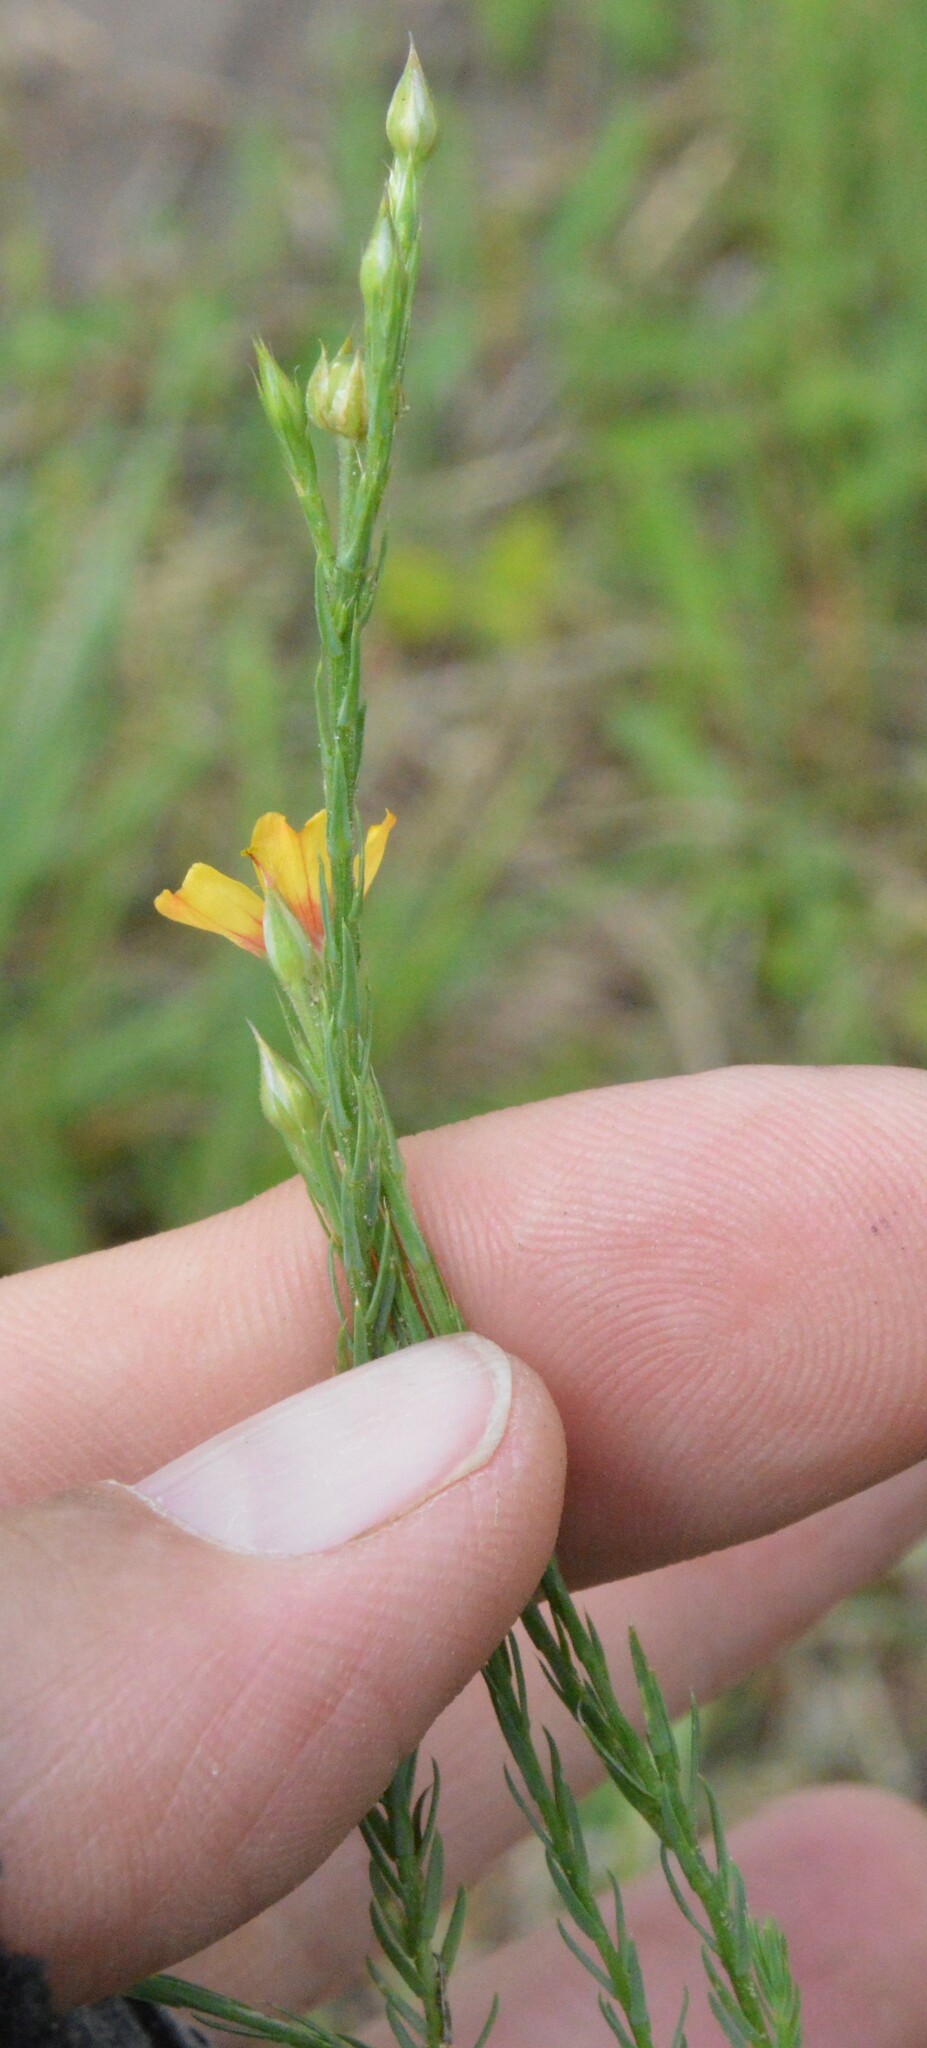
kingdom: Plantae
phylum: Tracheophyta
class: Magnoliopsida
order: Malpighiales
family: Linaceae
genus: Linum
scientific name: Linum imbricatum
